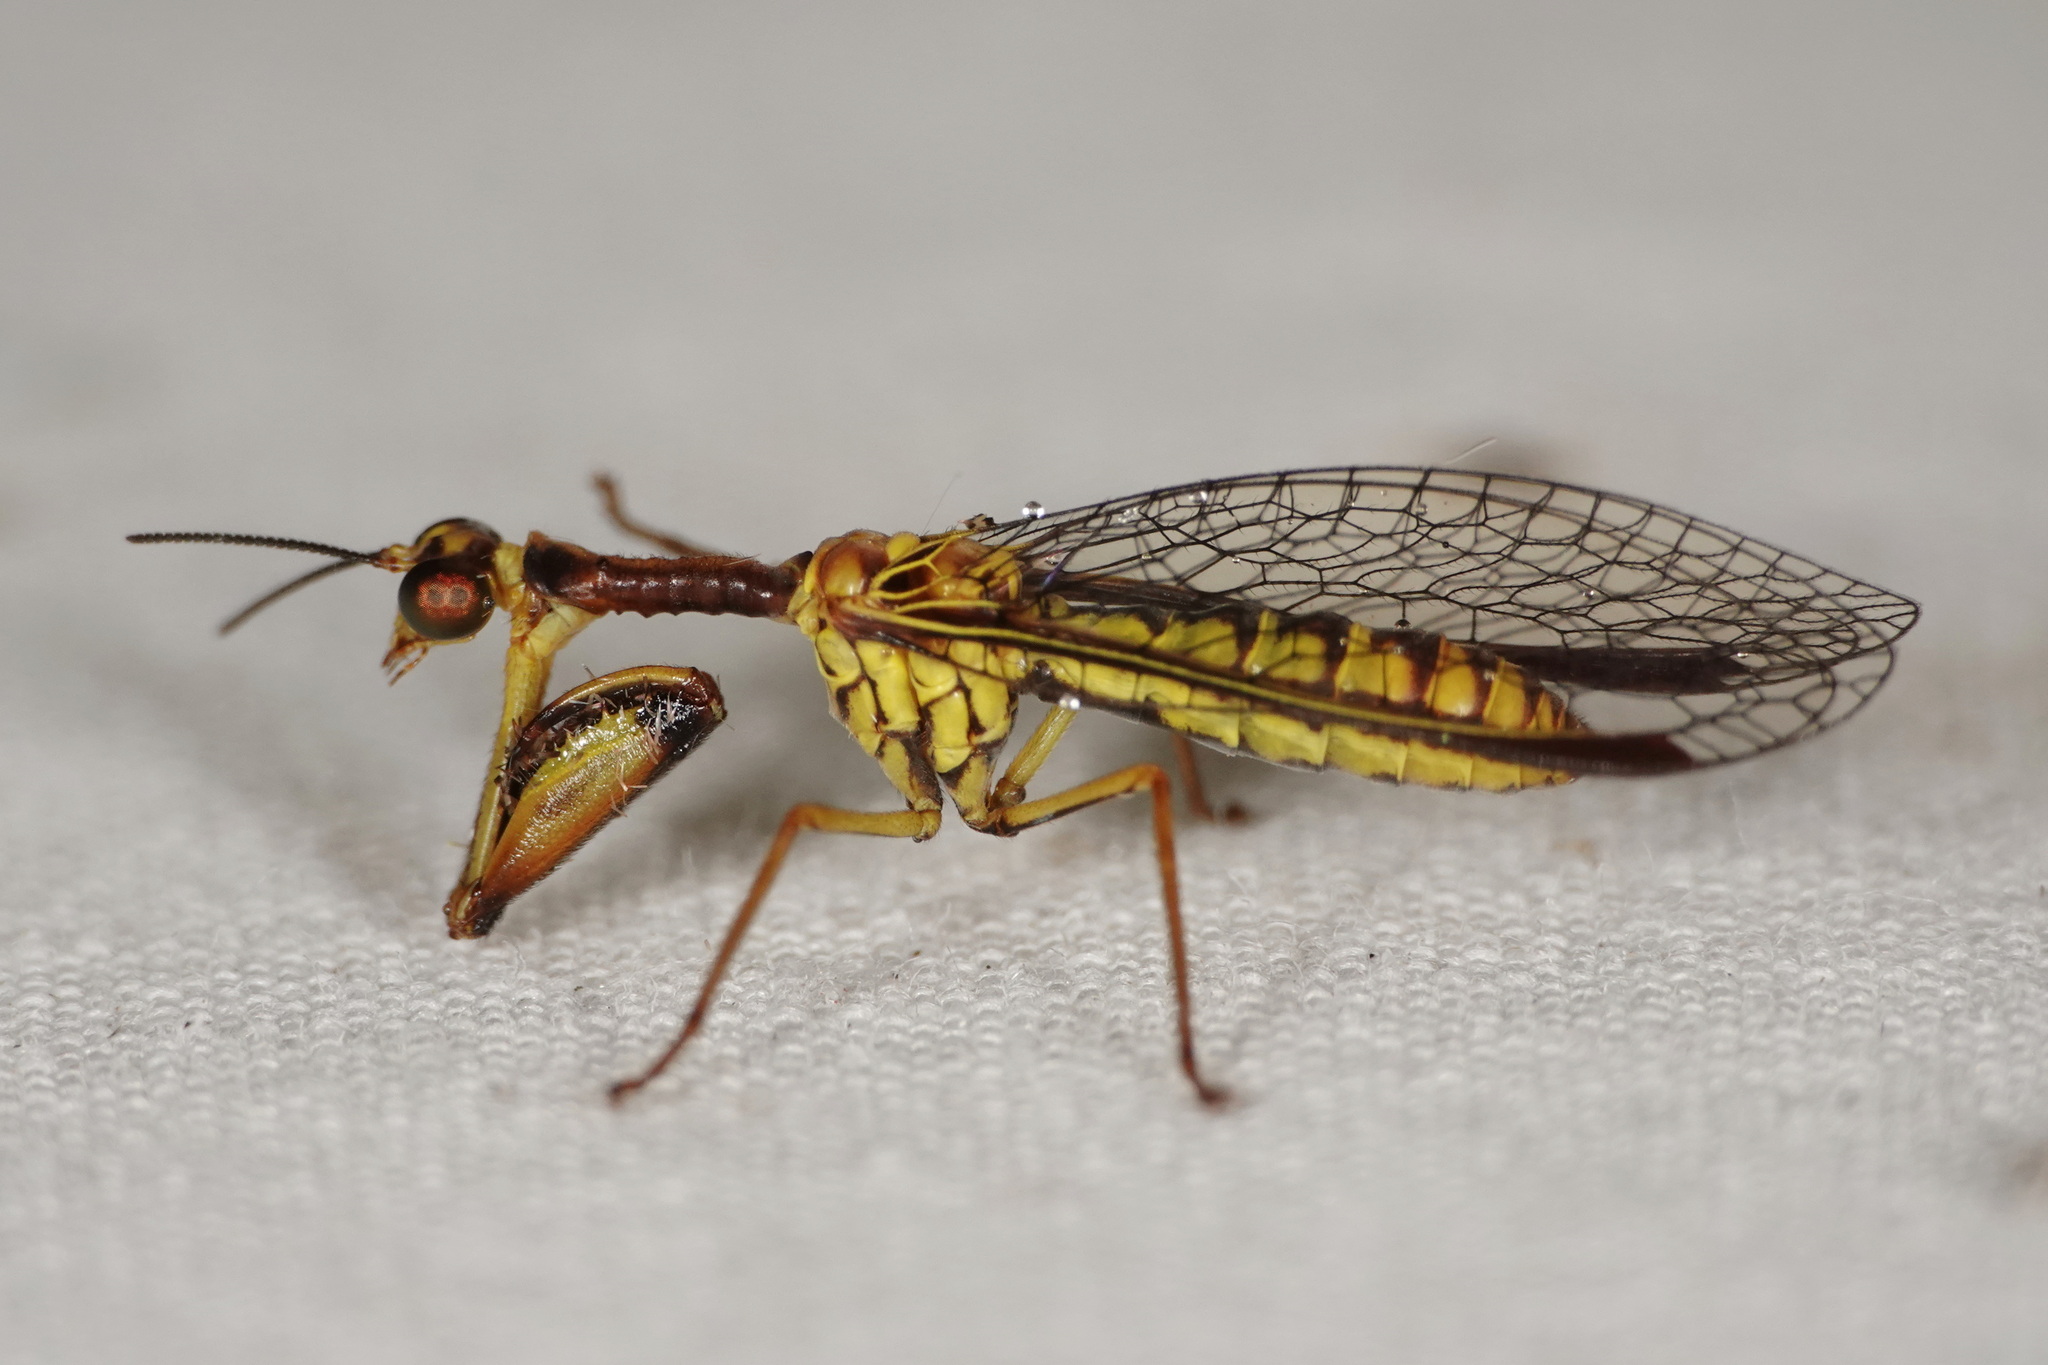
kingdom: Animalia
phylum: Arthropoda
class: Insecta
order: Neuroptera
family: Mantispidae
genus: Spaminta
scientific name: Spaminta minjerribae
